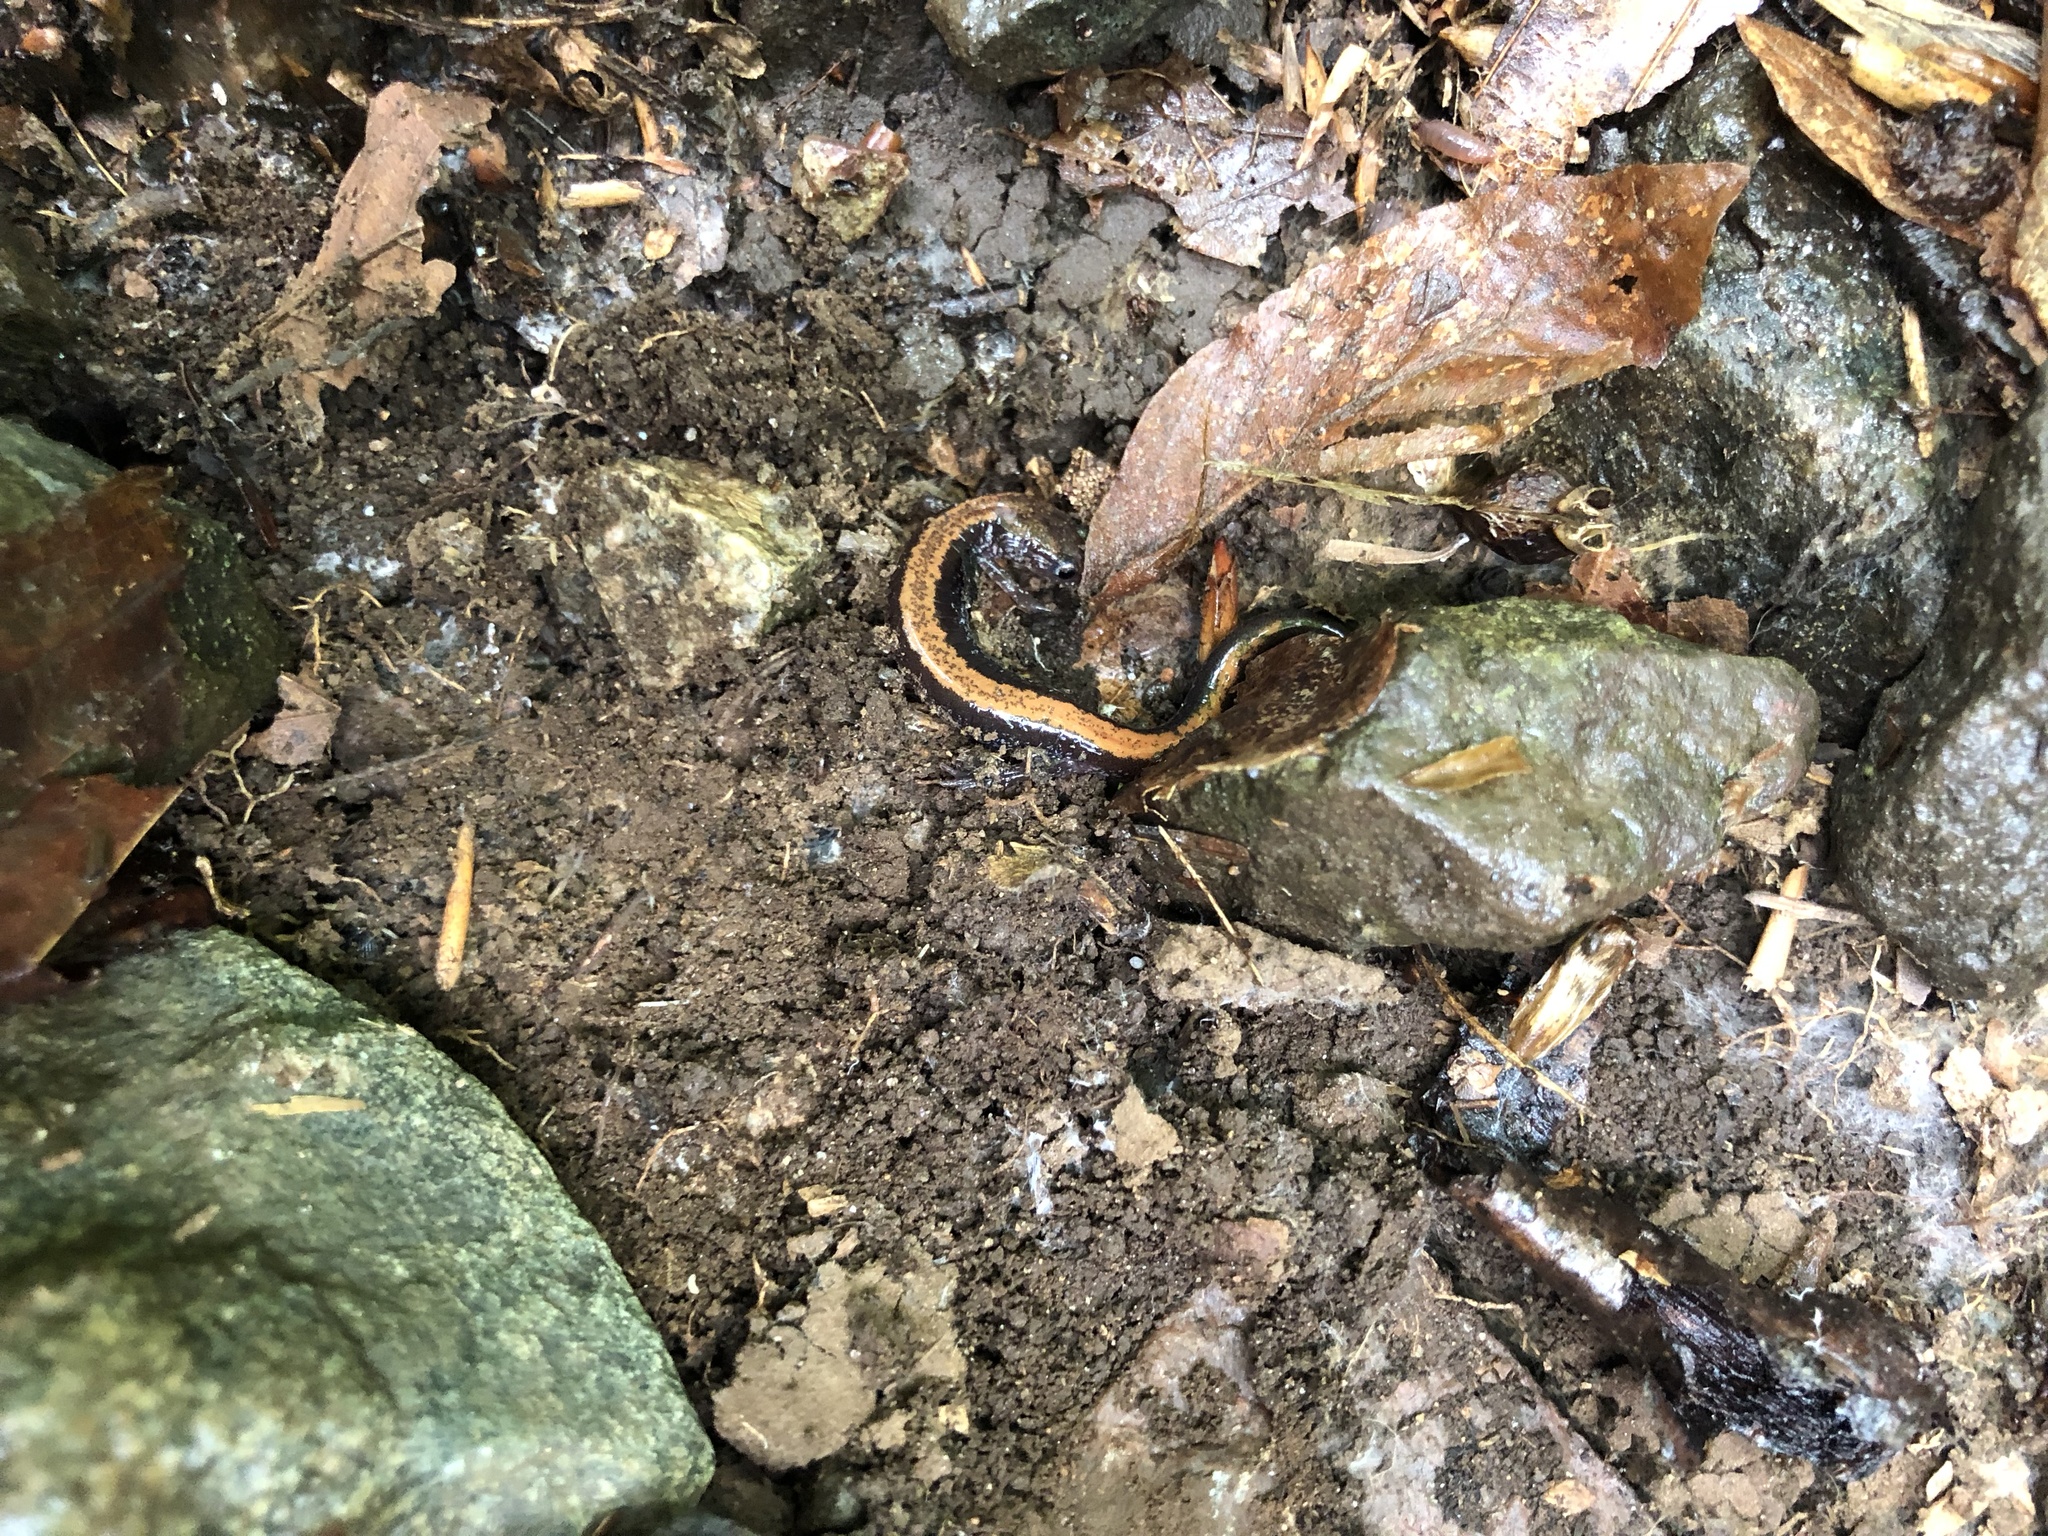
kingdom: Animalia
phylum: Chordata
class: Amphibia
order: Caudata
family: Plethodontidae
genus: Plethodon
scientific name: Plethodon cinereus
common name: Redback salamander
